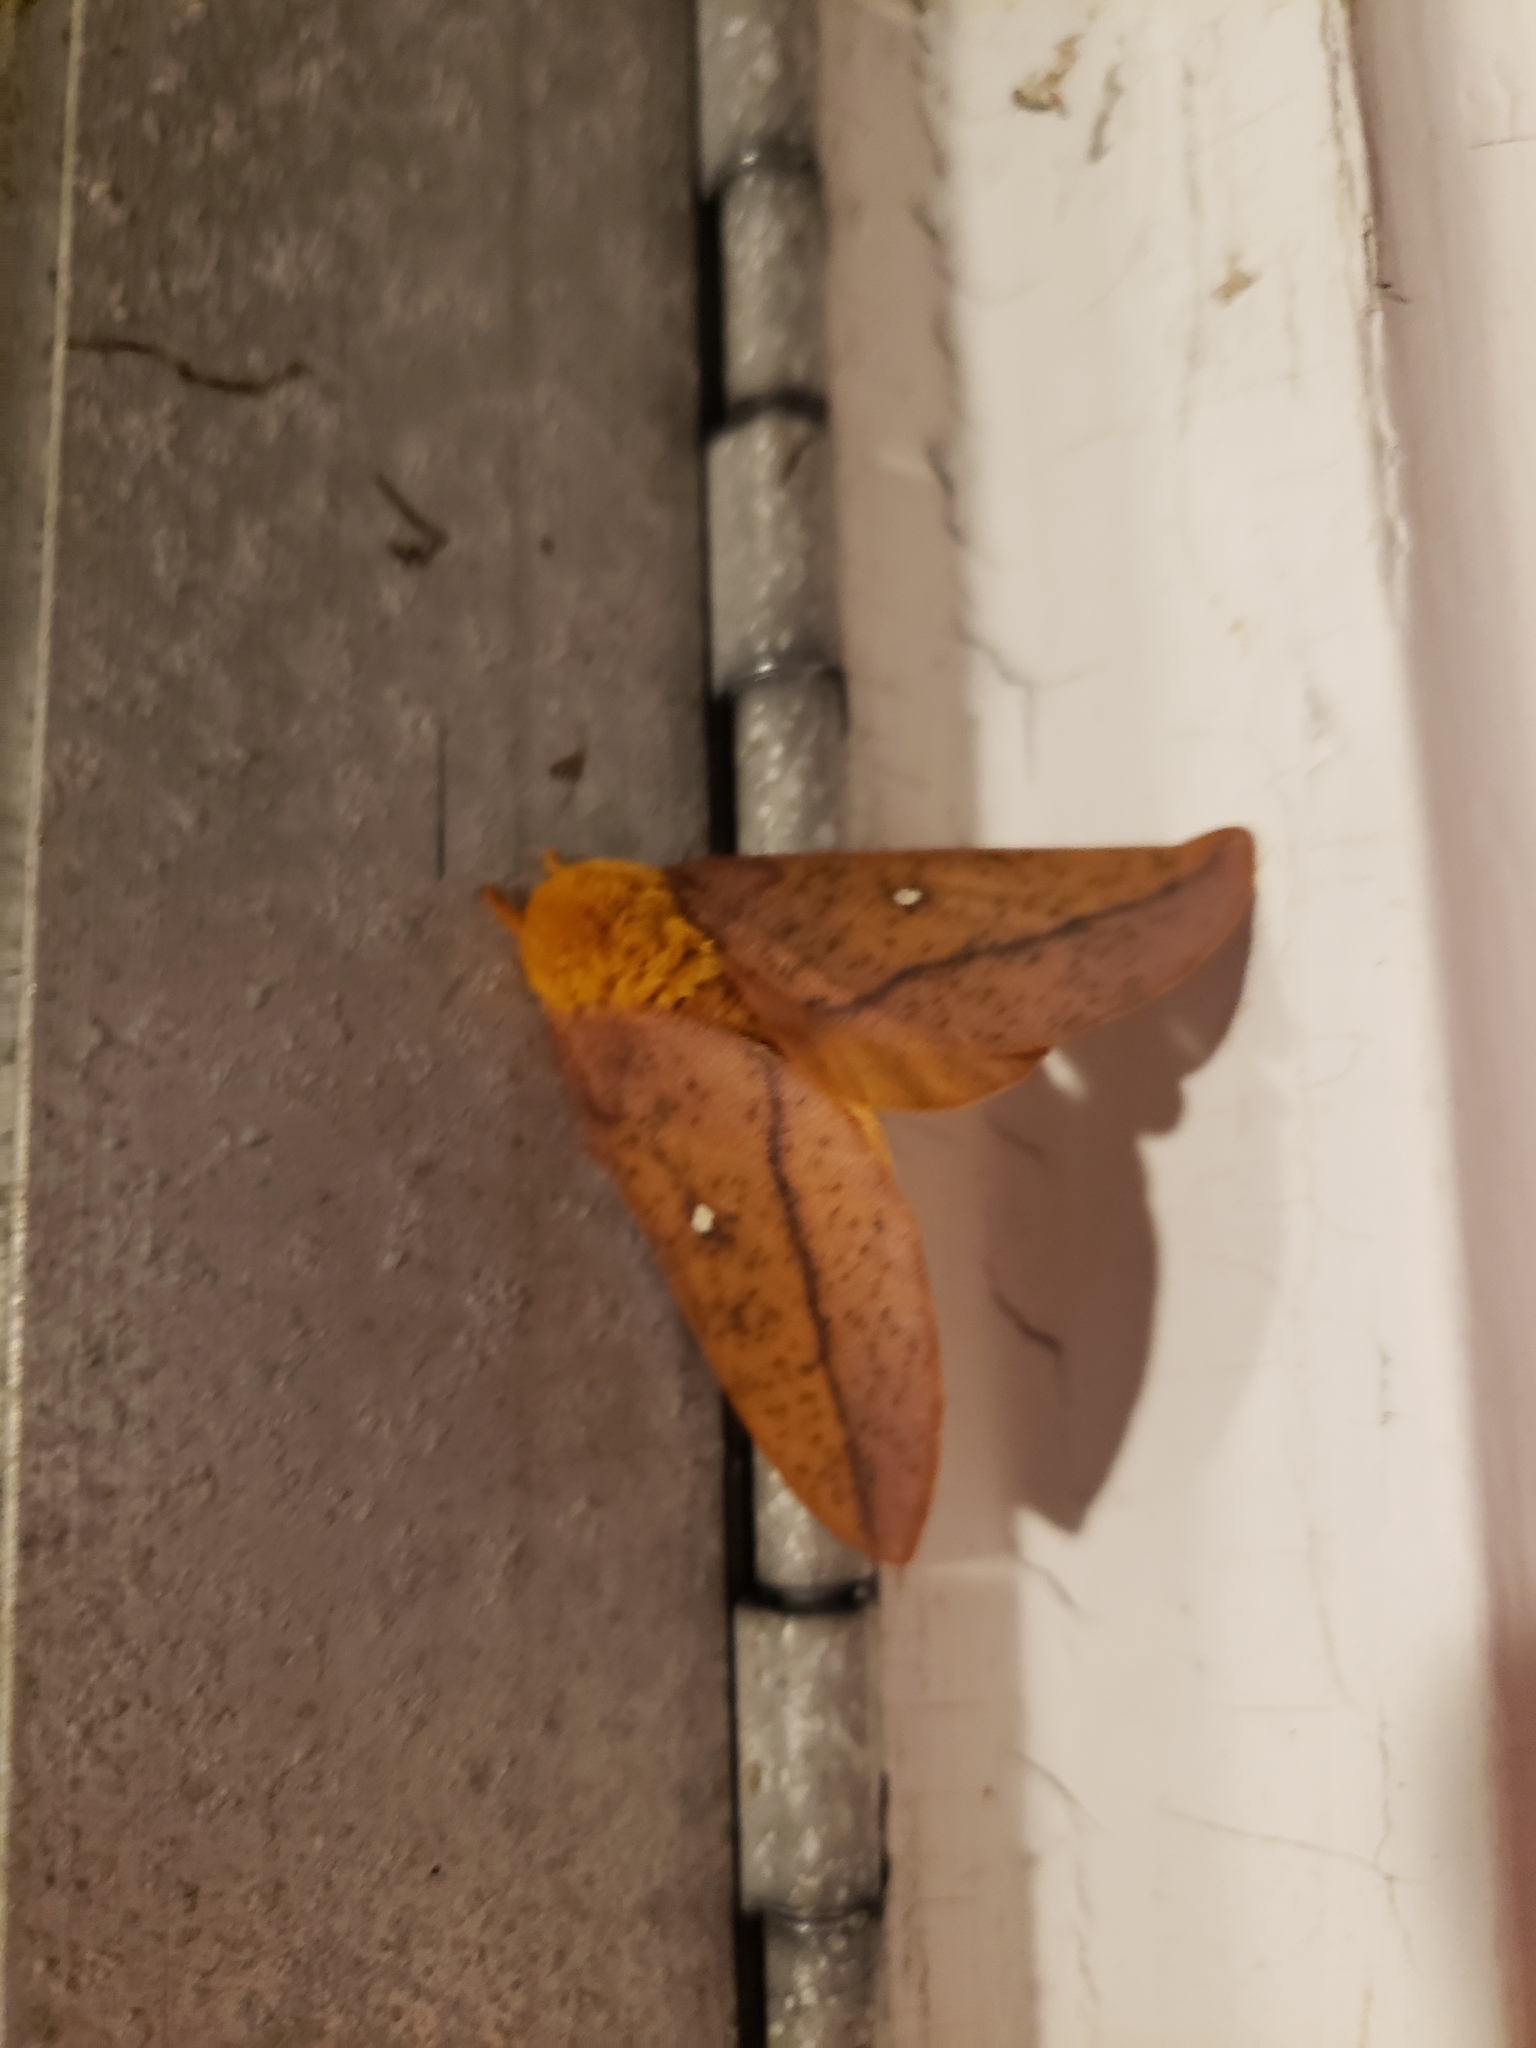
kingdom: Animalia
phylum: Arthropoda
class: Insecta
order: Lepidoptera
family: Saturniidae
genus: Anisota
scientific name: Anisota senatoria
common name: Orange-striped oakworm moth
